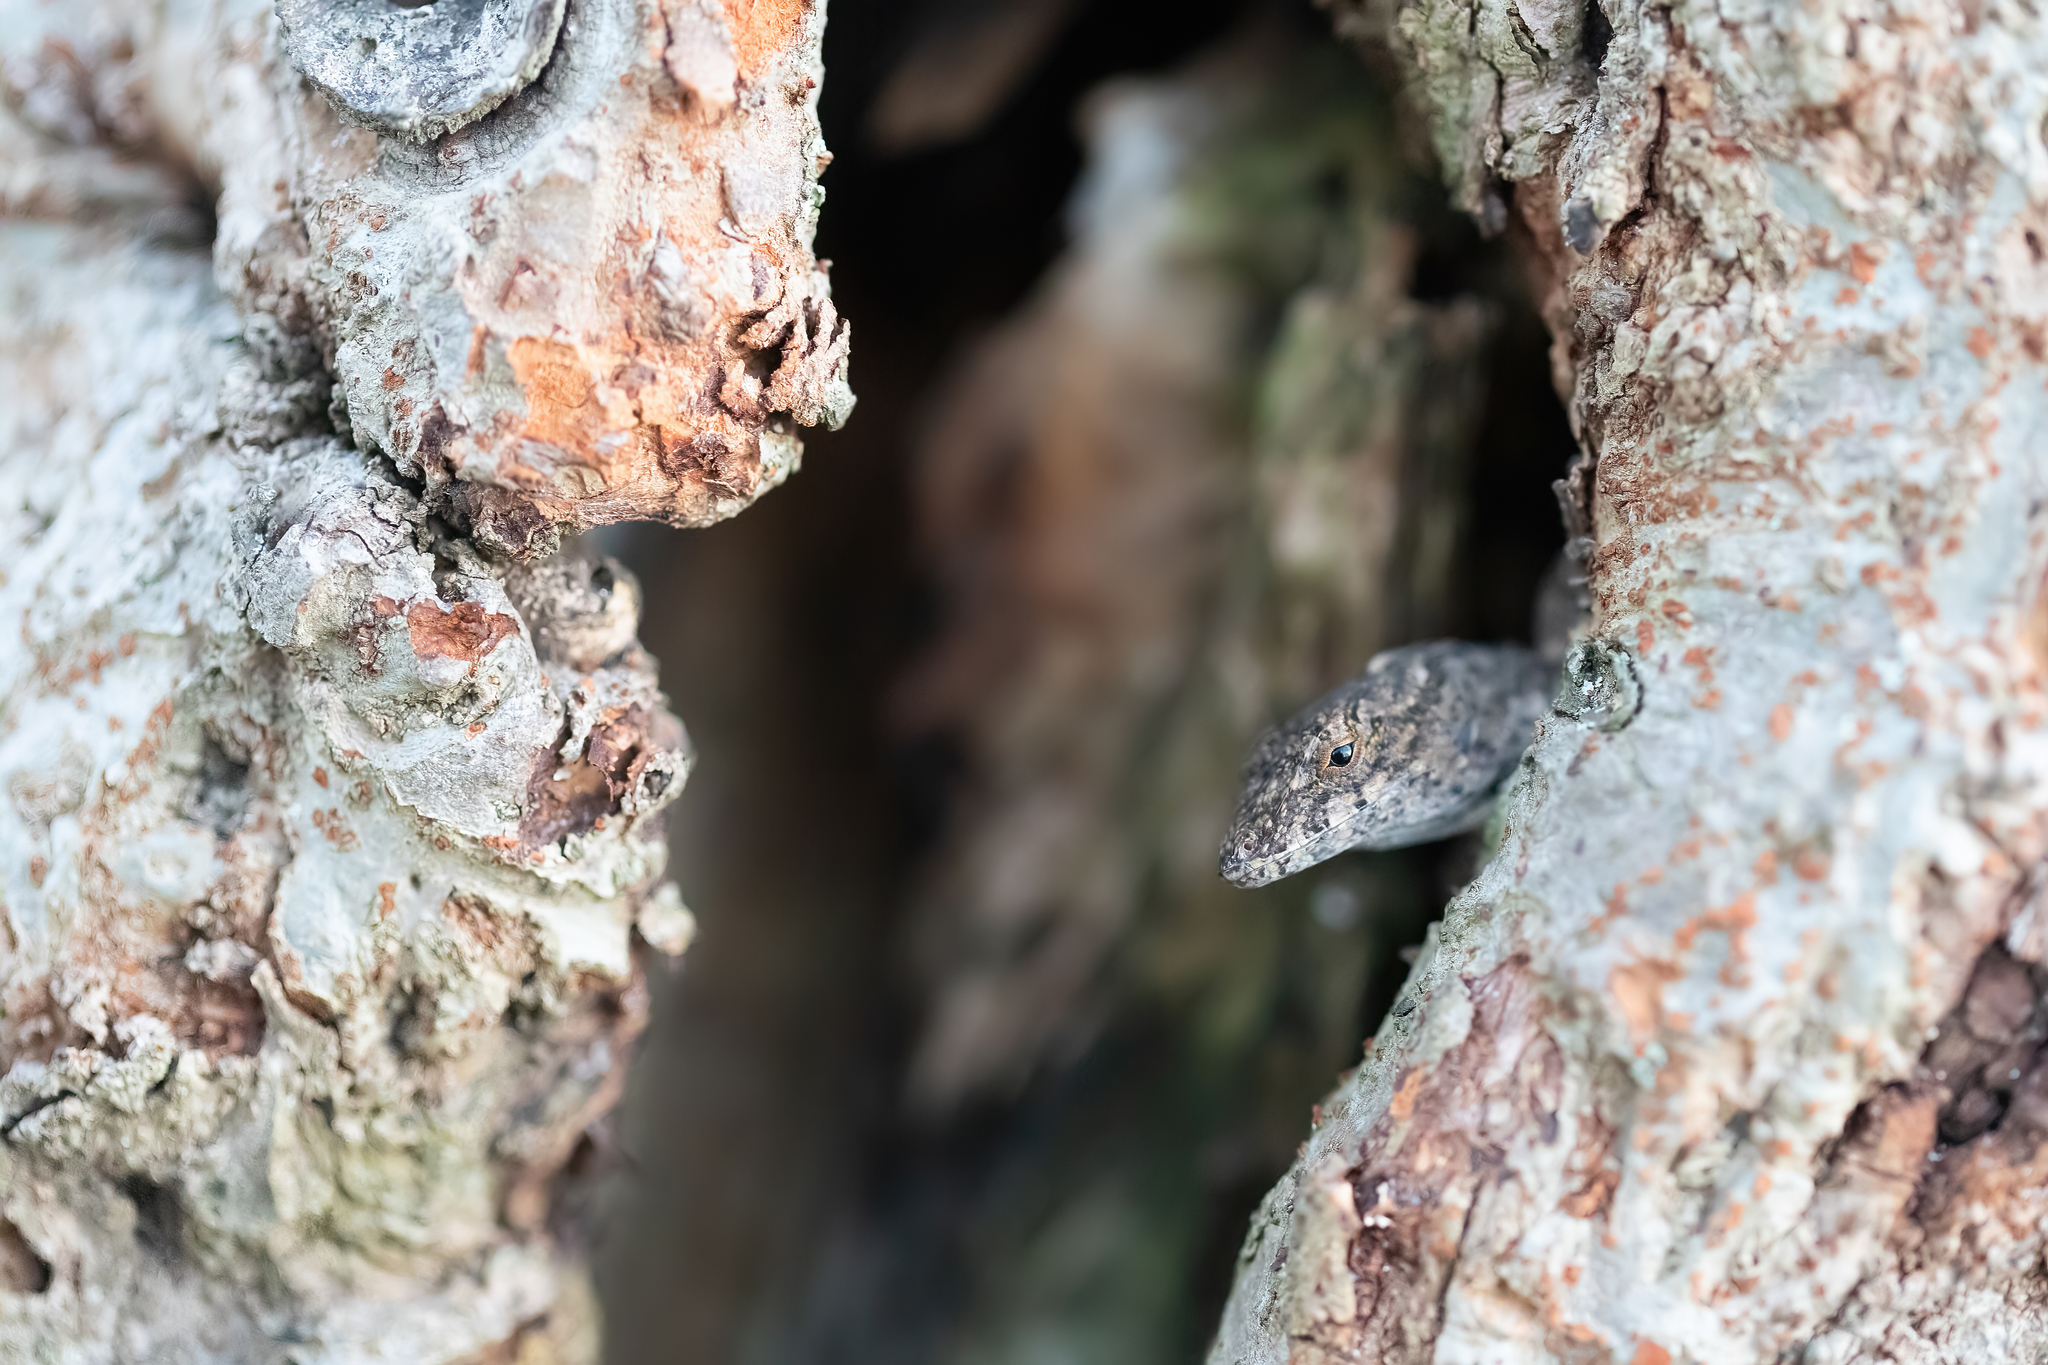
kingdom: Animalia
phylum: Chordata
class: Squamata
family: Dactyloidae
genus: Anolis
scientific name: Anolis sagrei
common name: Brown anole
